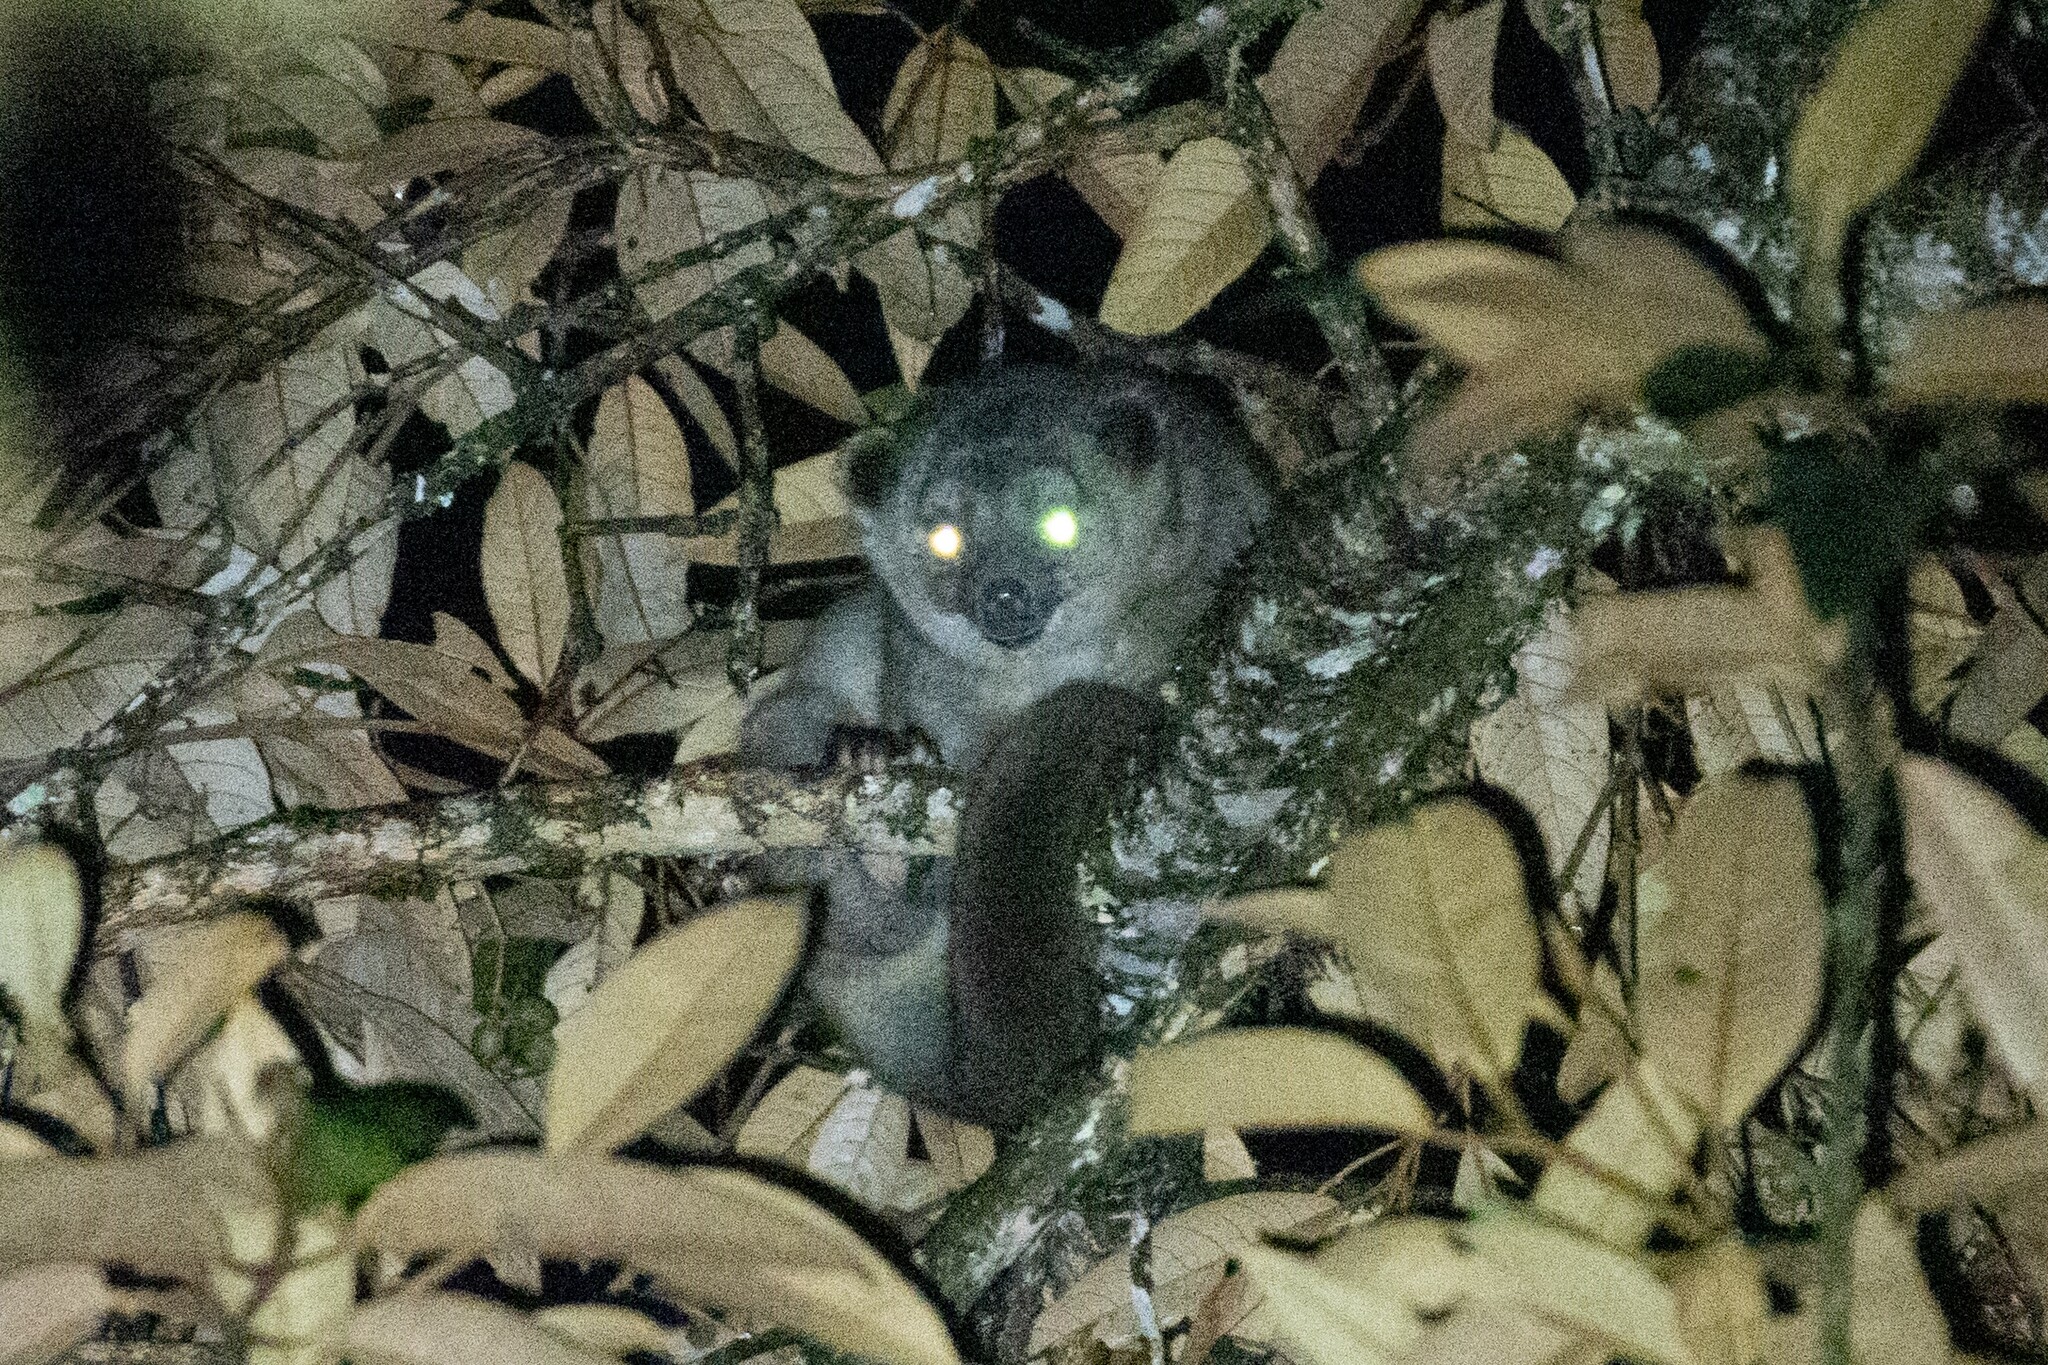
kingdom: Animalia
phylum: Chordata
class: Mammalia
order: Carnivora
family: Procyonidae
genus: Potos
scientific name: Potos flavus
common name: Kinkajou
